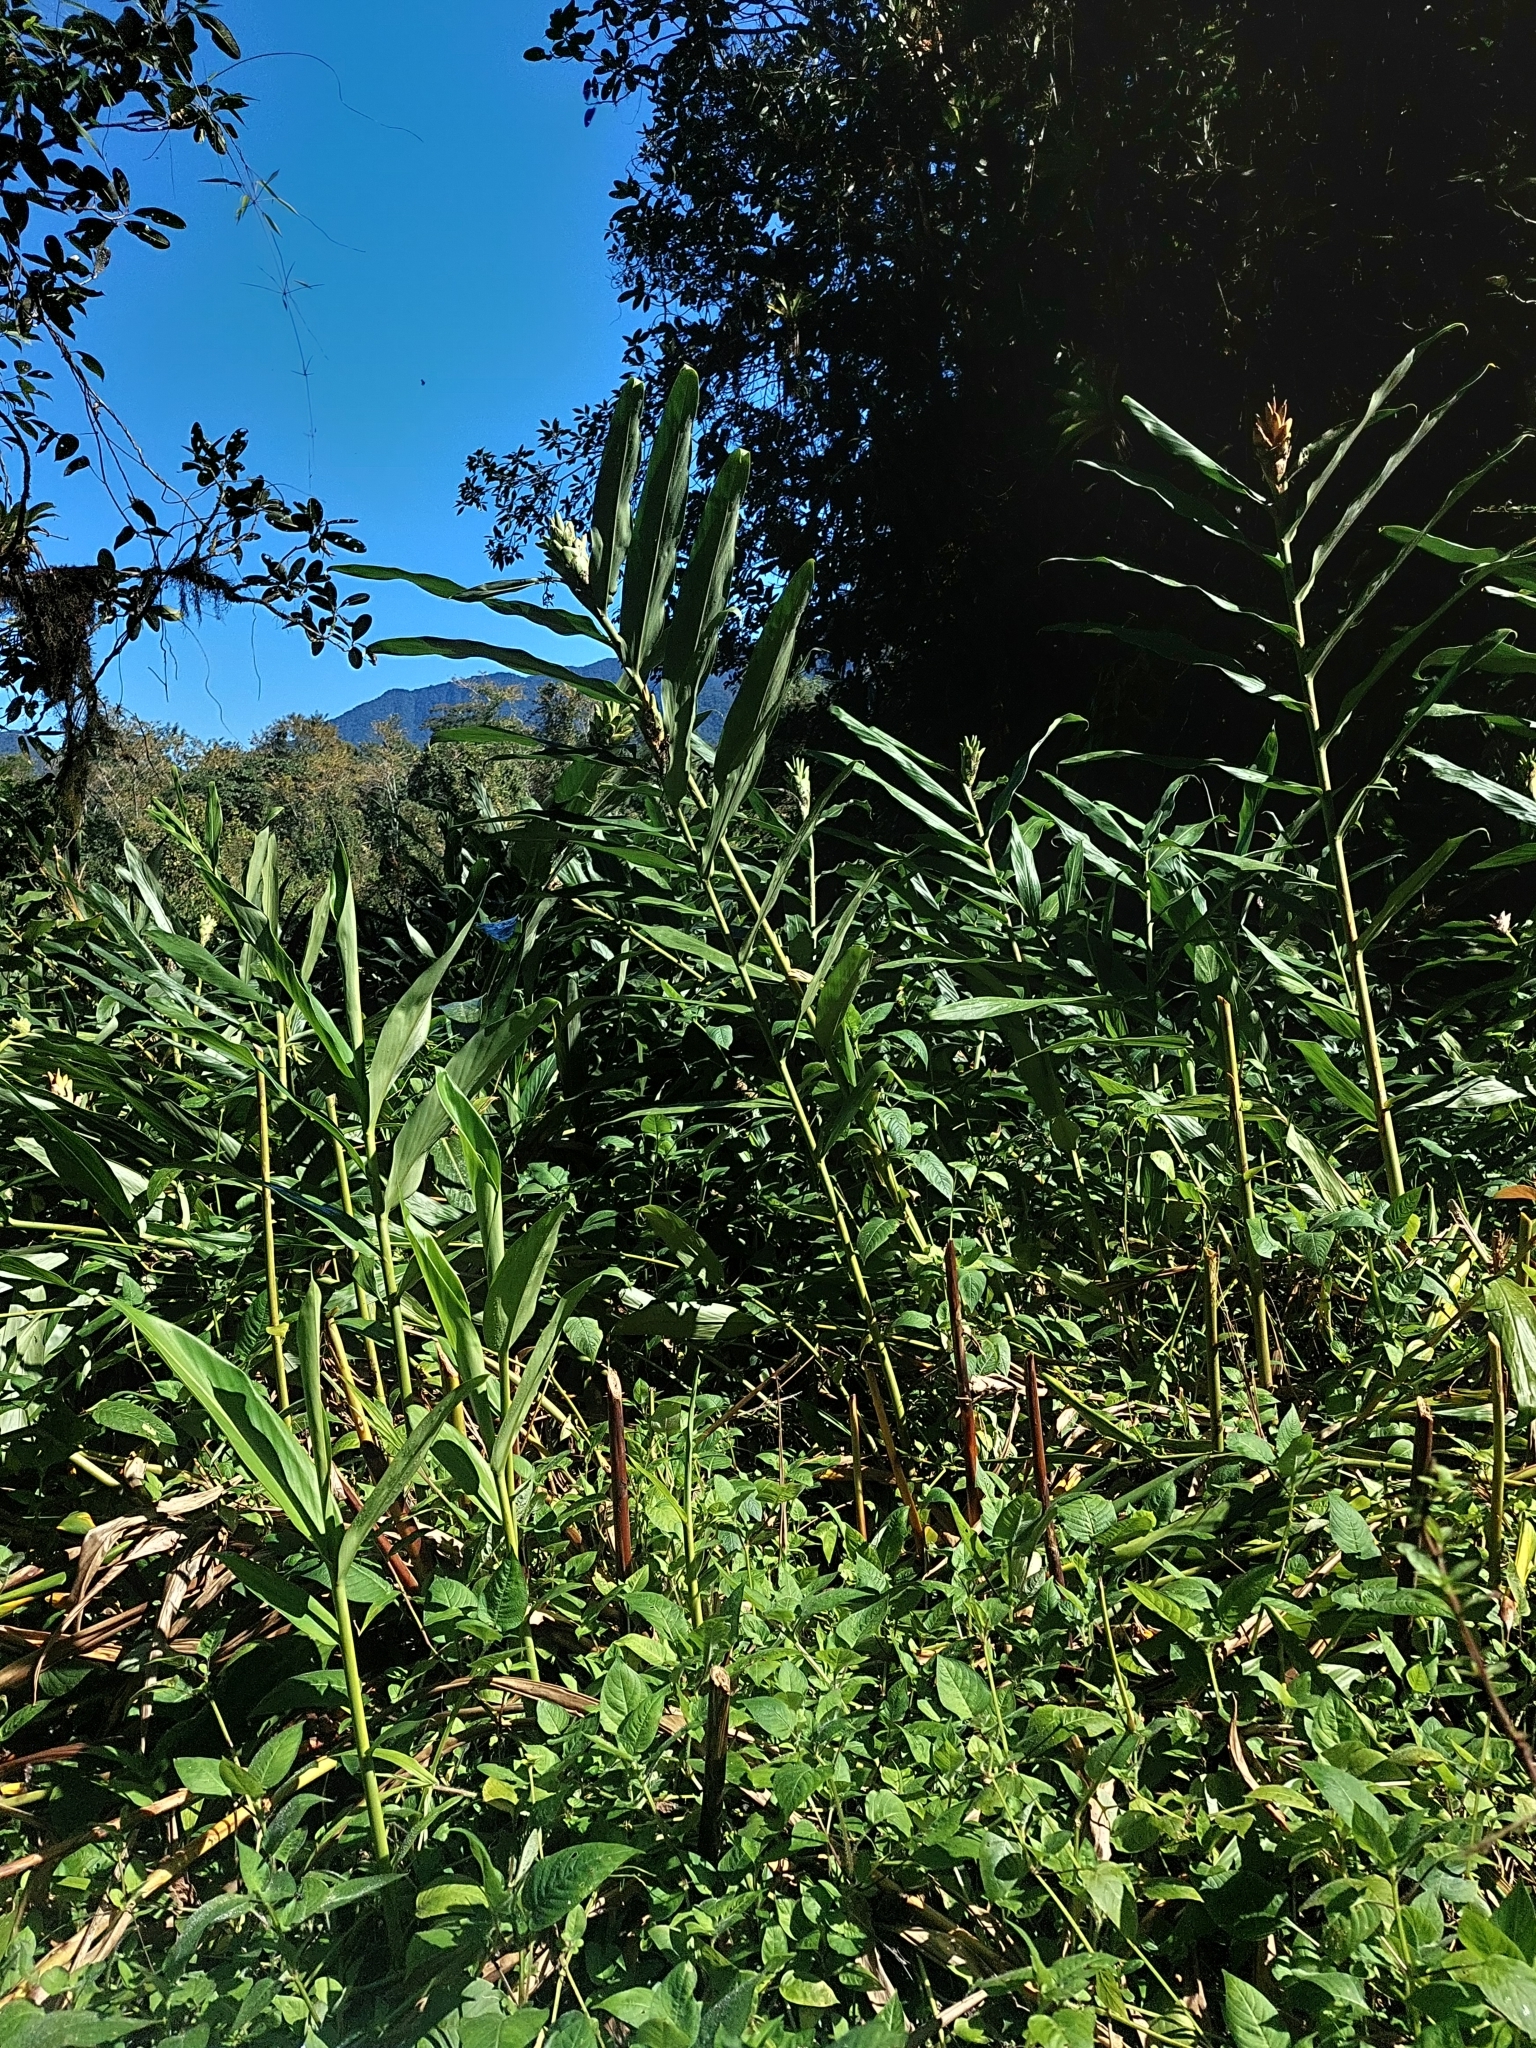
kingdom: Plantae
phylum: Tracheophyta
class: Liliopsida
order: Zingiberales
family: Zingiberaceae
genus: Hedychium
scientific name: Hedychium coronarium
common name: White garland-lily
